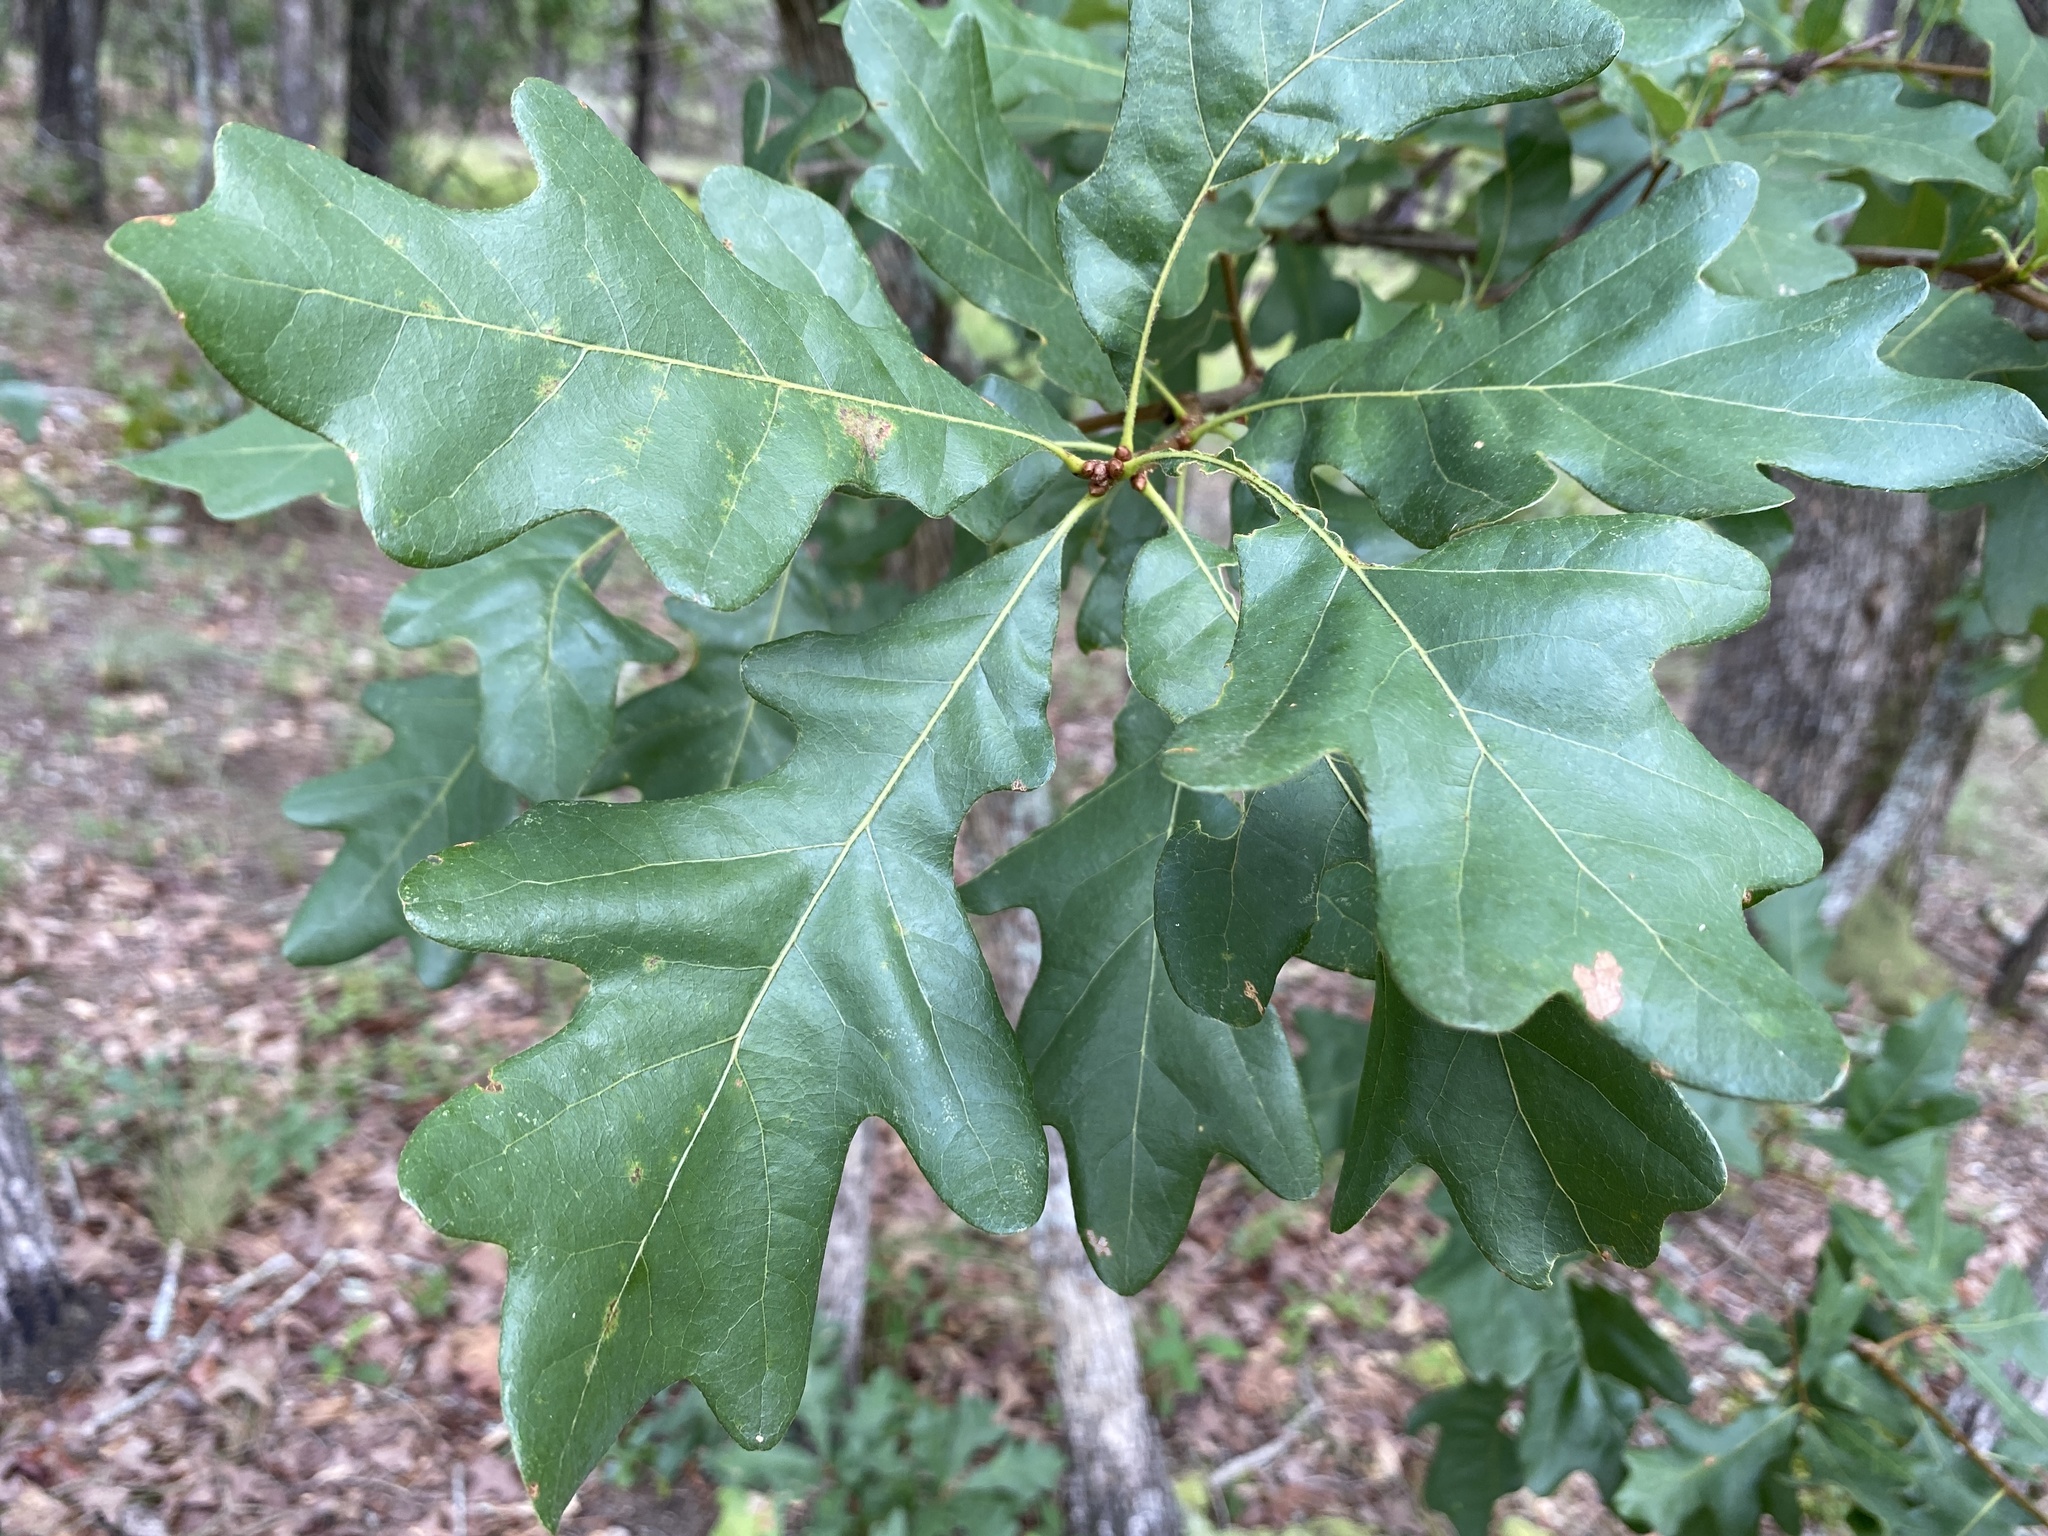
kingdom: Plantae
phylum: Tracheophyta
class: Magnoliopsida
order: Fagales
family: Fagaceae
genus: Quercus
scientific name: Quercus margaretiae
